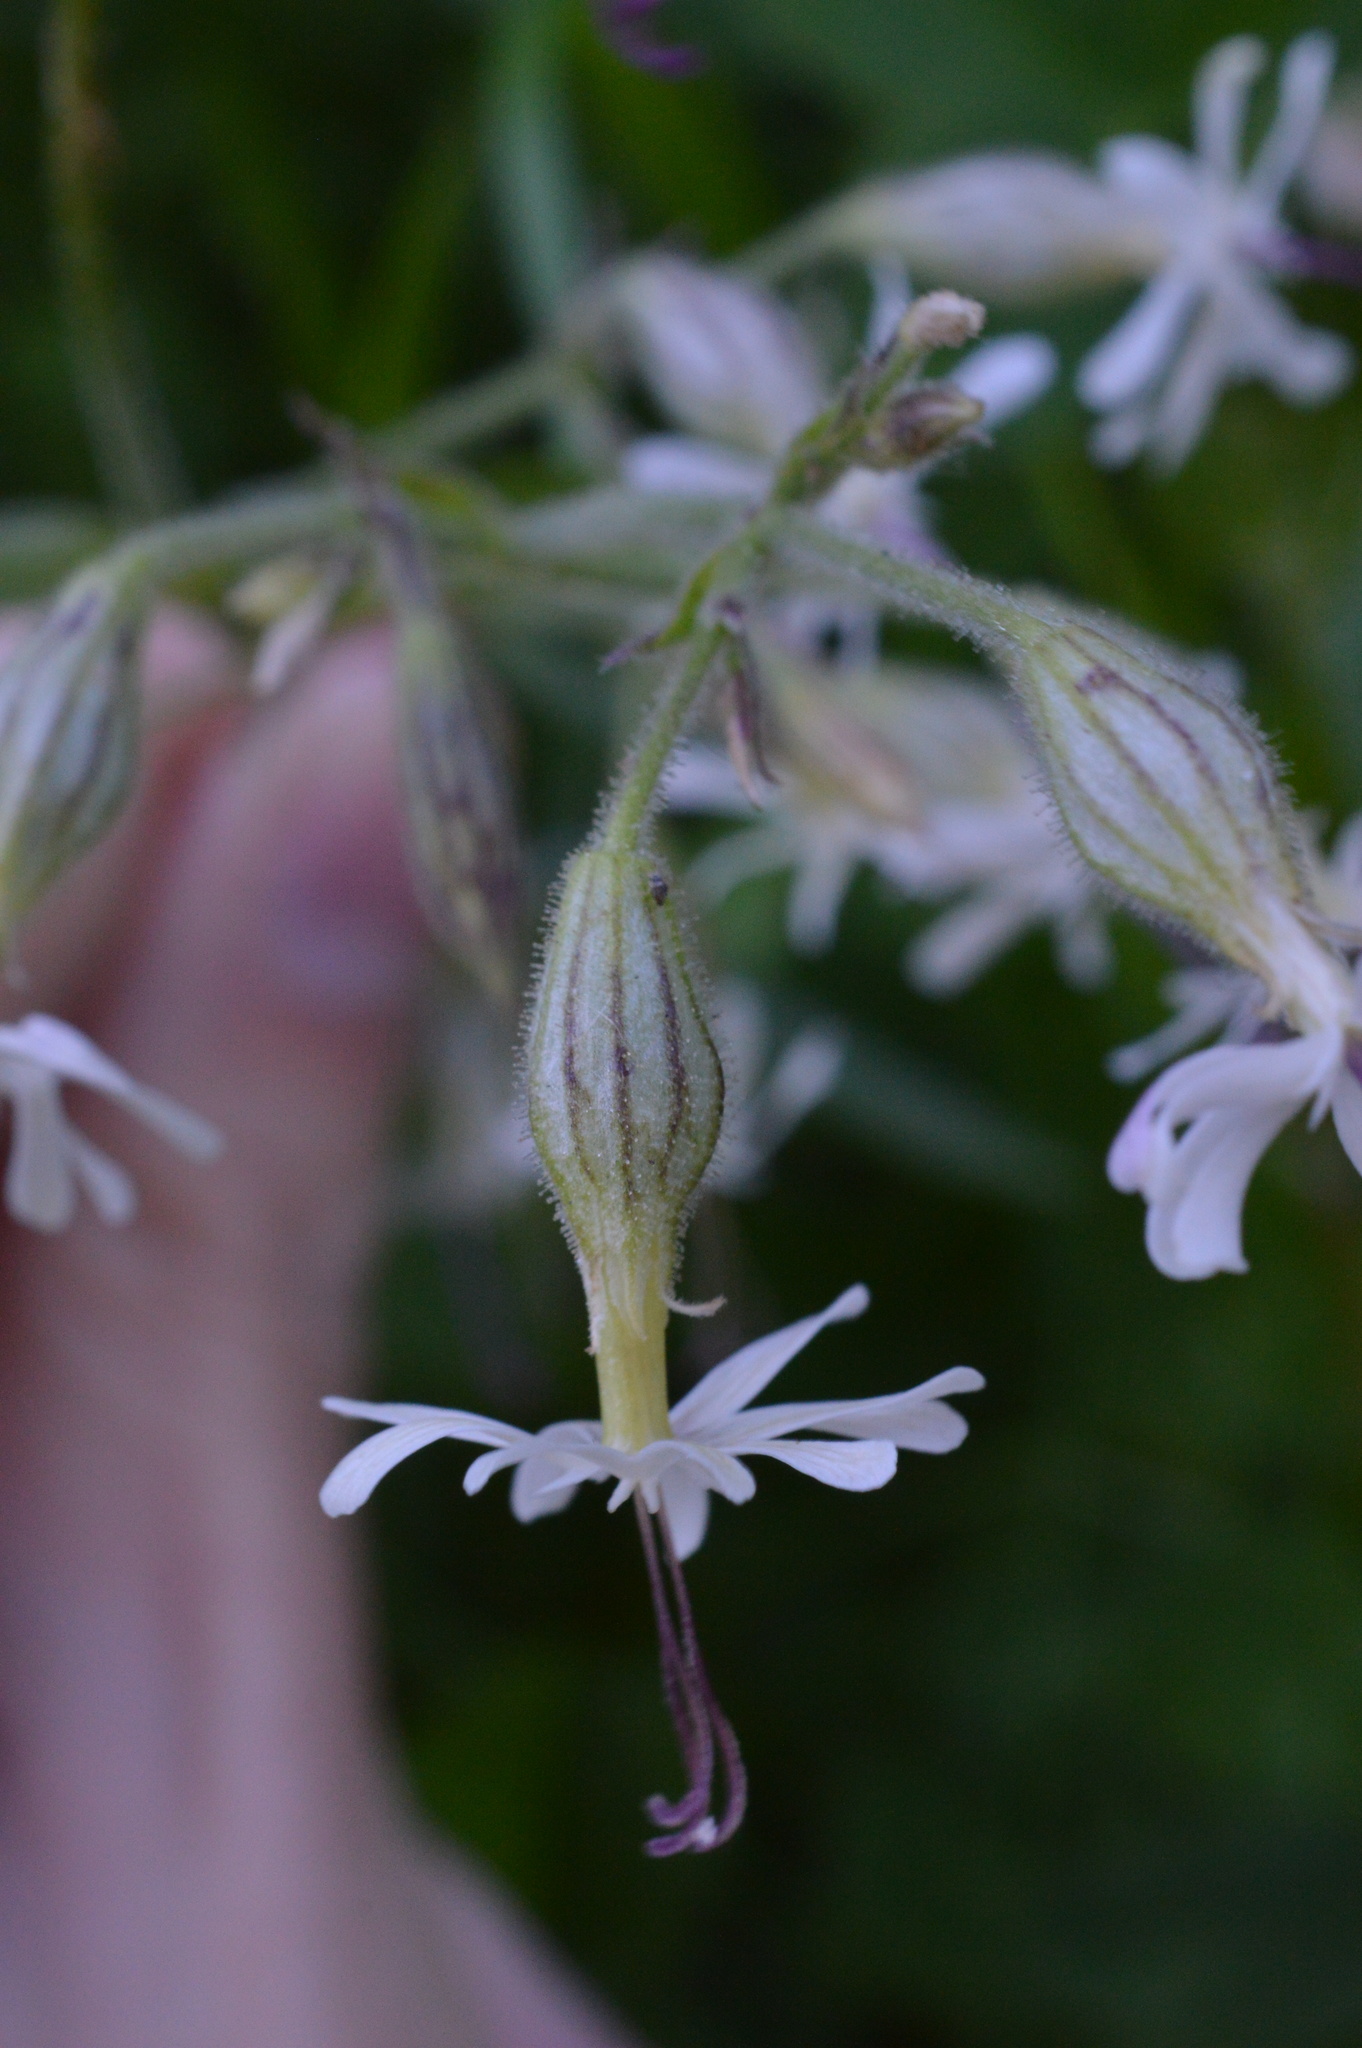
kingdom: Plantae
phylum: Tracheophyta
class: Magnoliopsida
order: Caryophyllales
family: Caryophyllaceae
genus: Silene
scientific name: Silene nutans
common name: Nottingham catchfly
